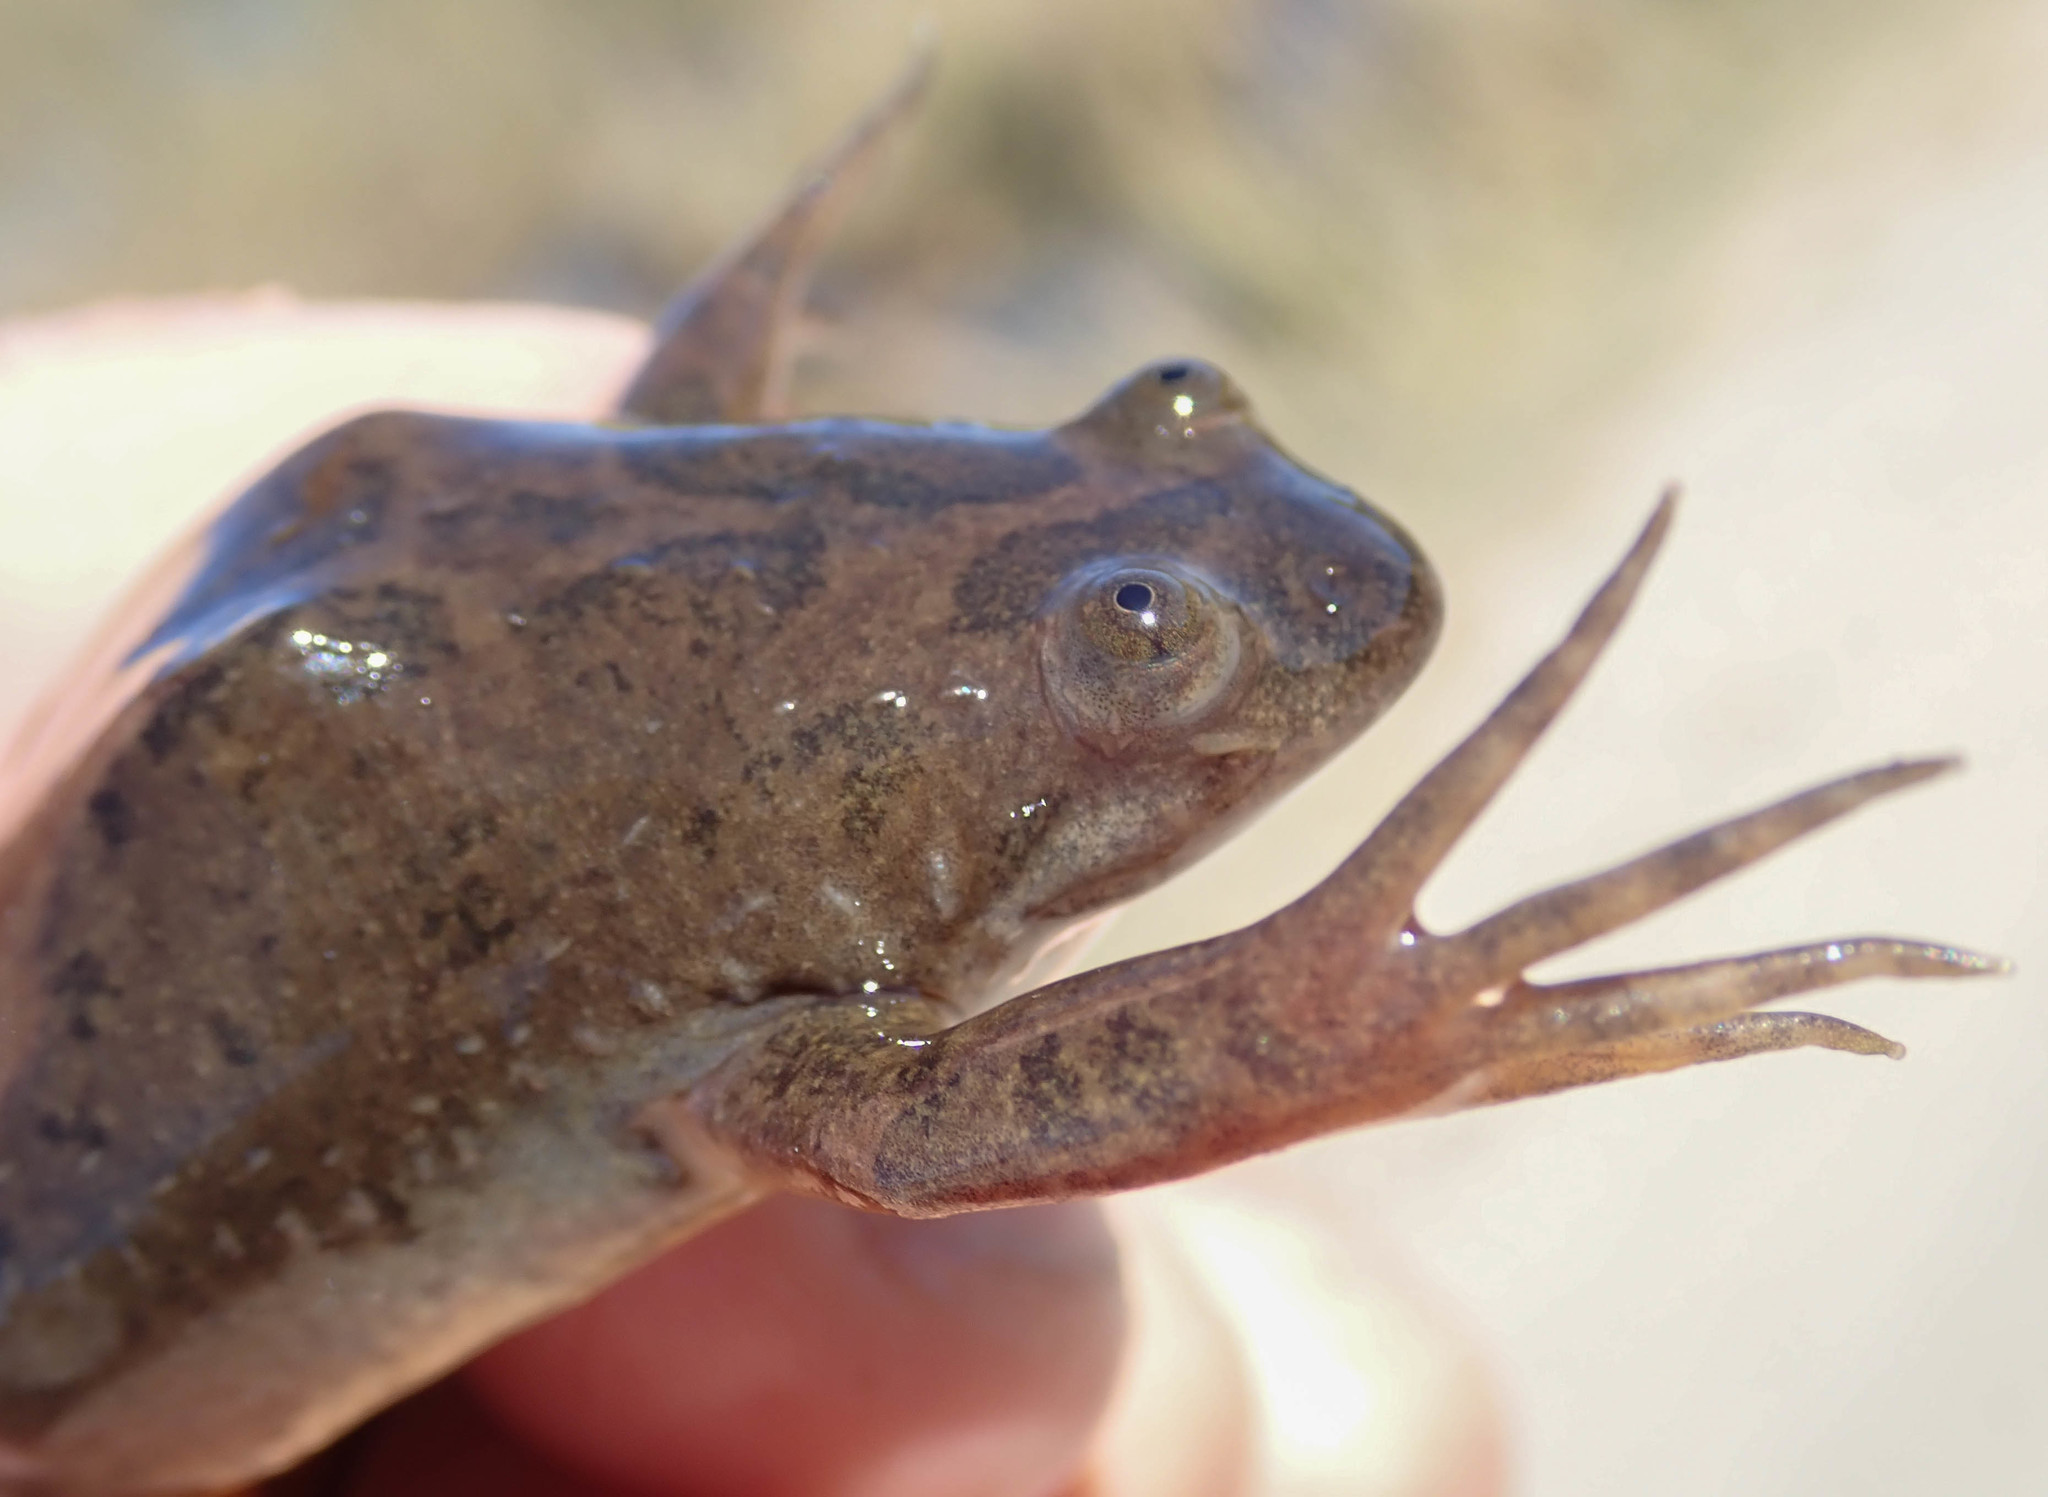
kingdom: Animalia
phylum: Chordata
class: Amphibia
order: Anura
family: Pipidae
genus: Xenopus
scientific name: Xenopus muelleri
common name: Muller's clawed frog
